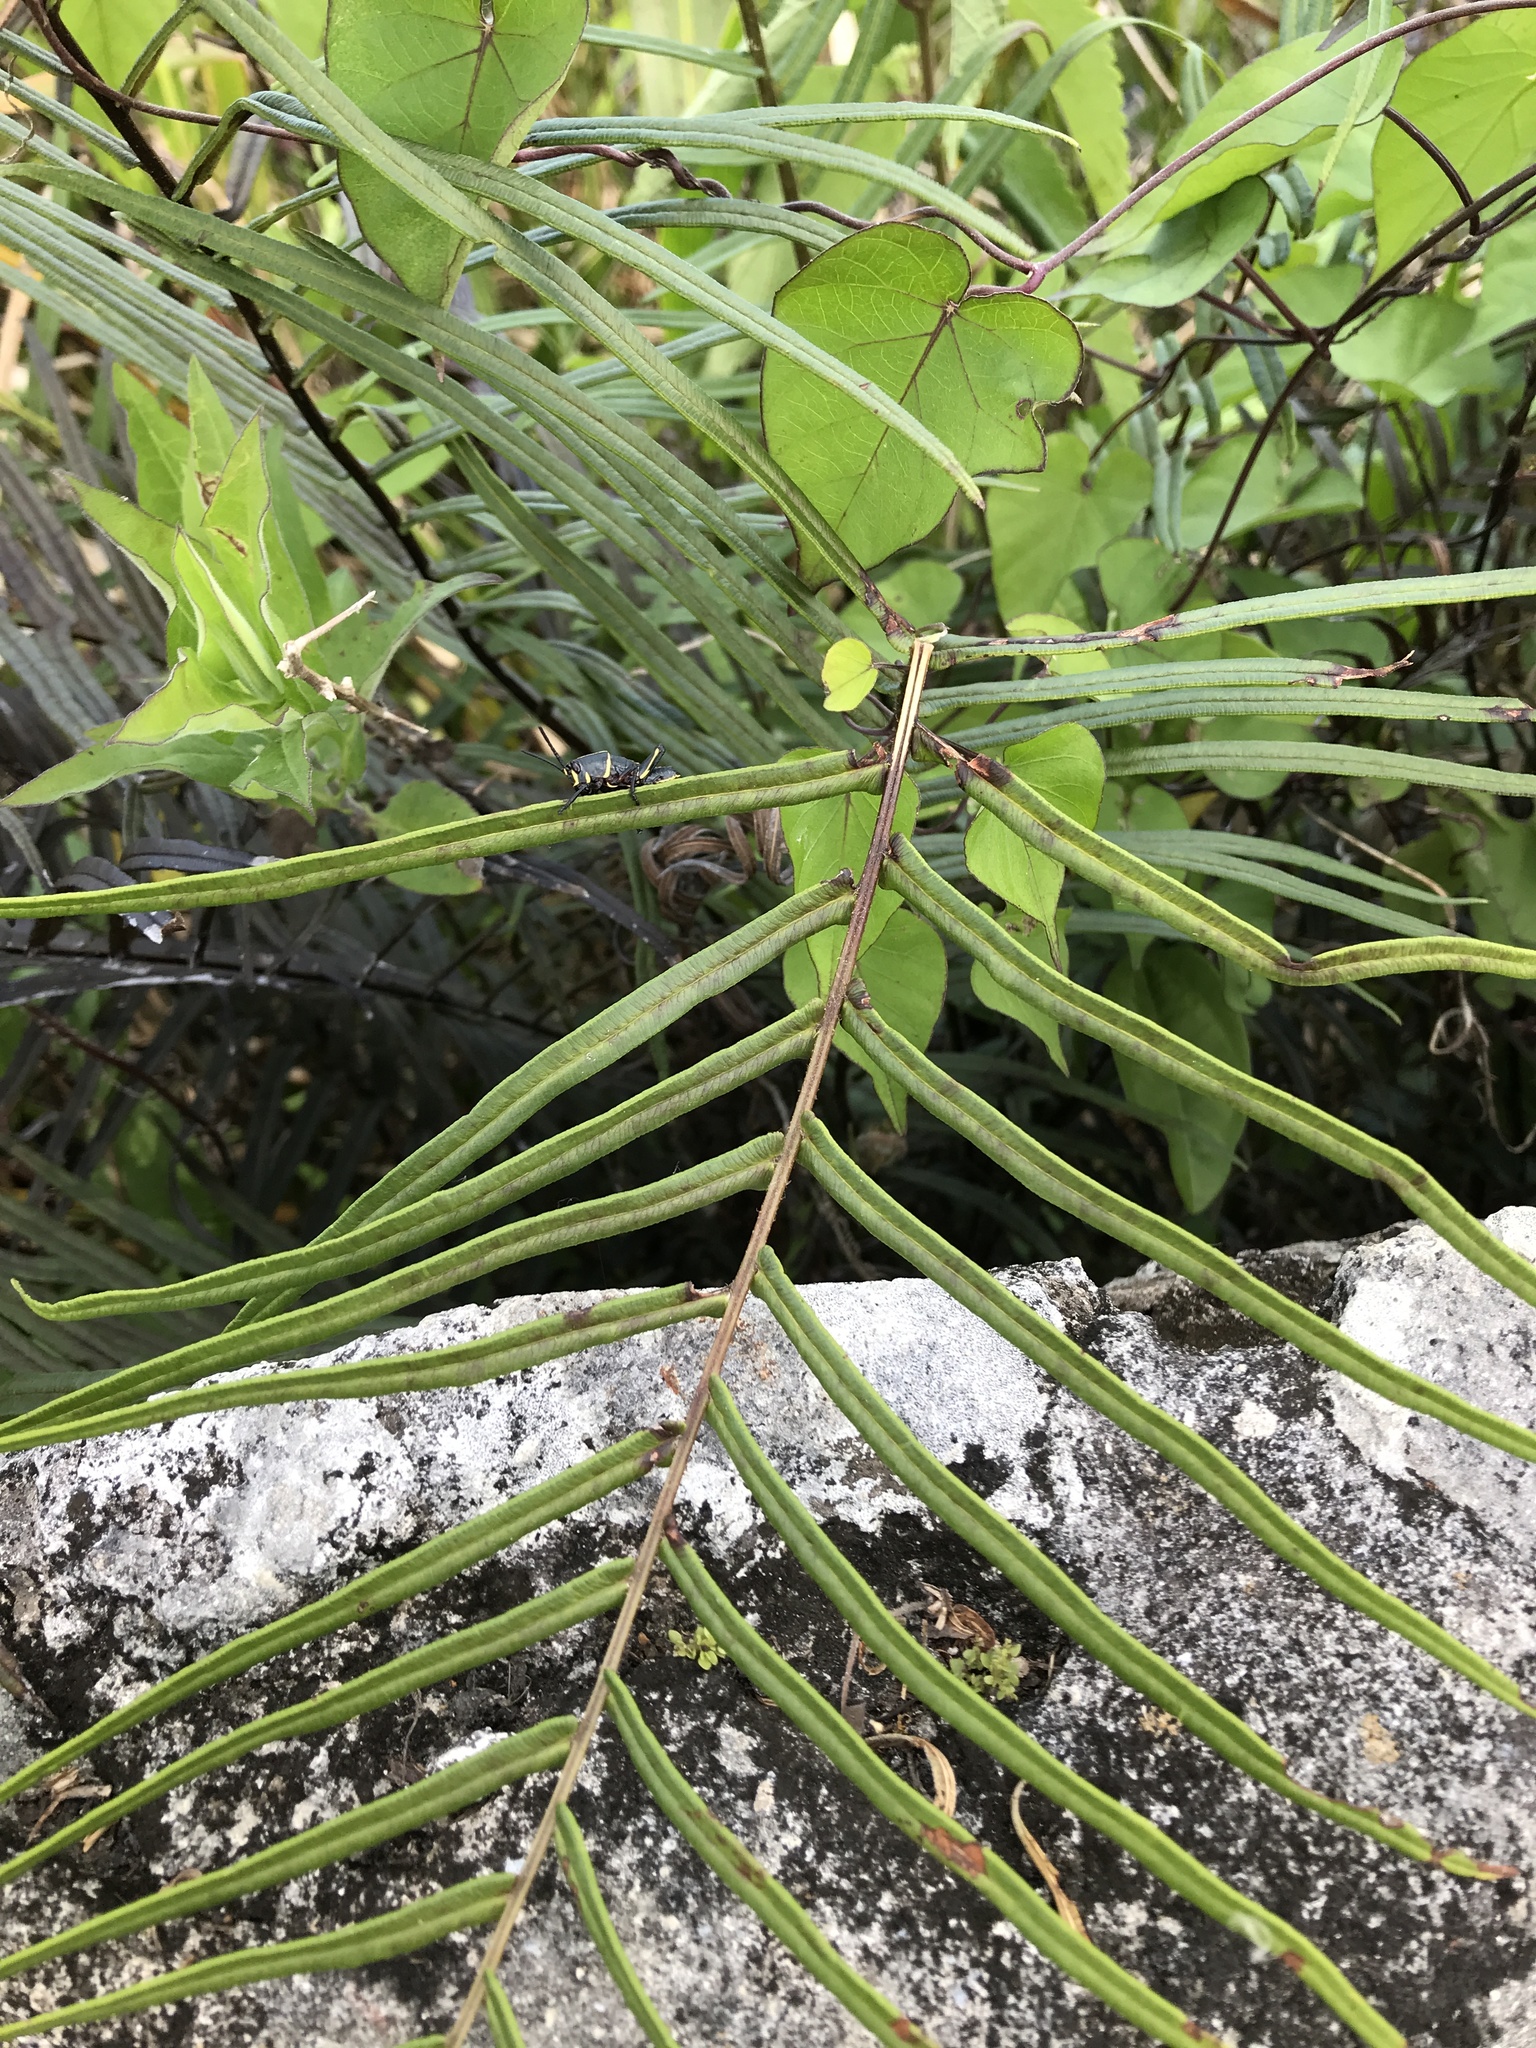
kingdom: Plantae
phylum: Tracheophyta
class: Polypodiopsida
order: Polypodiales
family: Pteridaceae
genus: Pteris
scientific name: Pteris vittata
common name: Ladder brake
